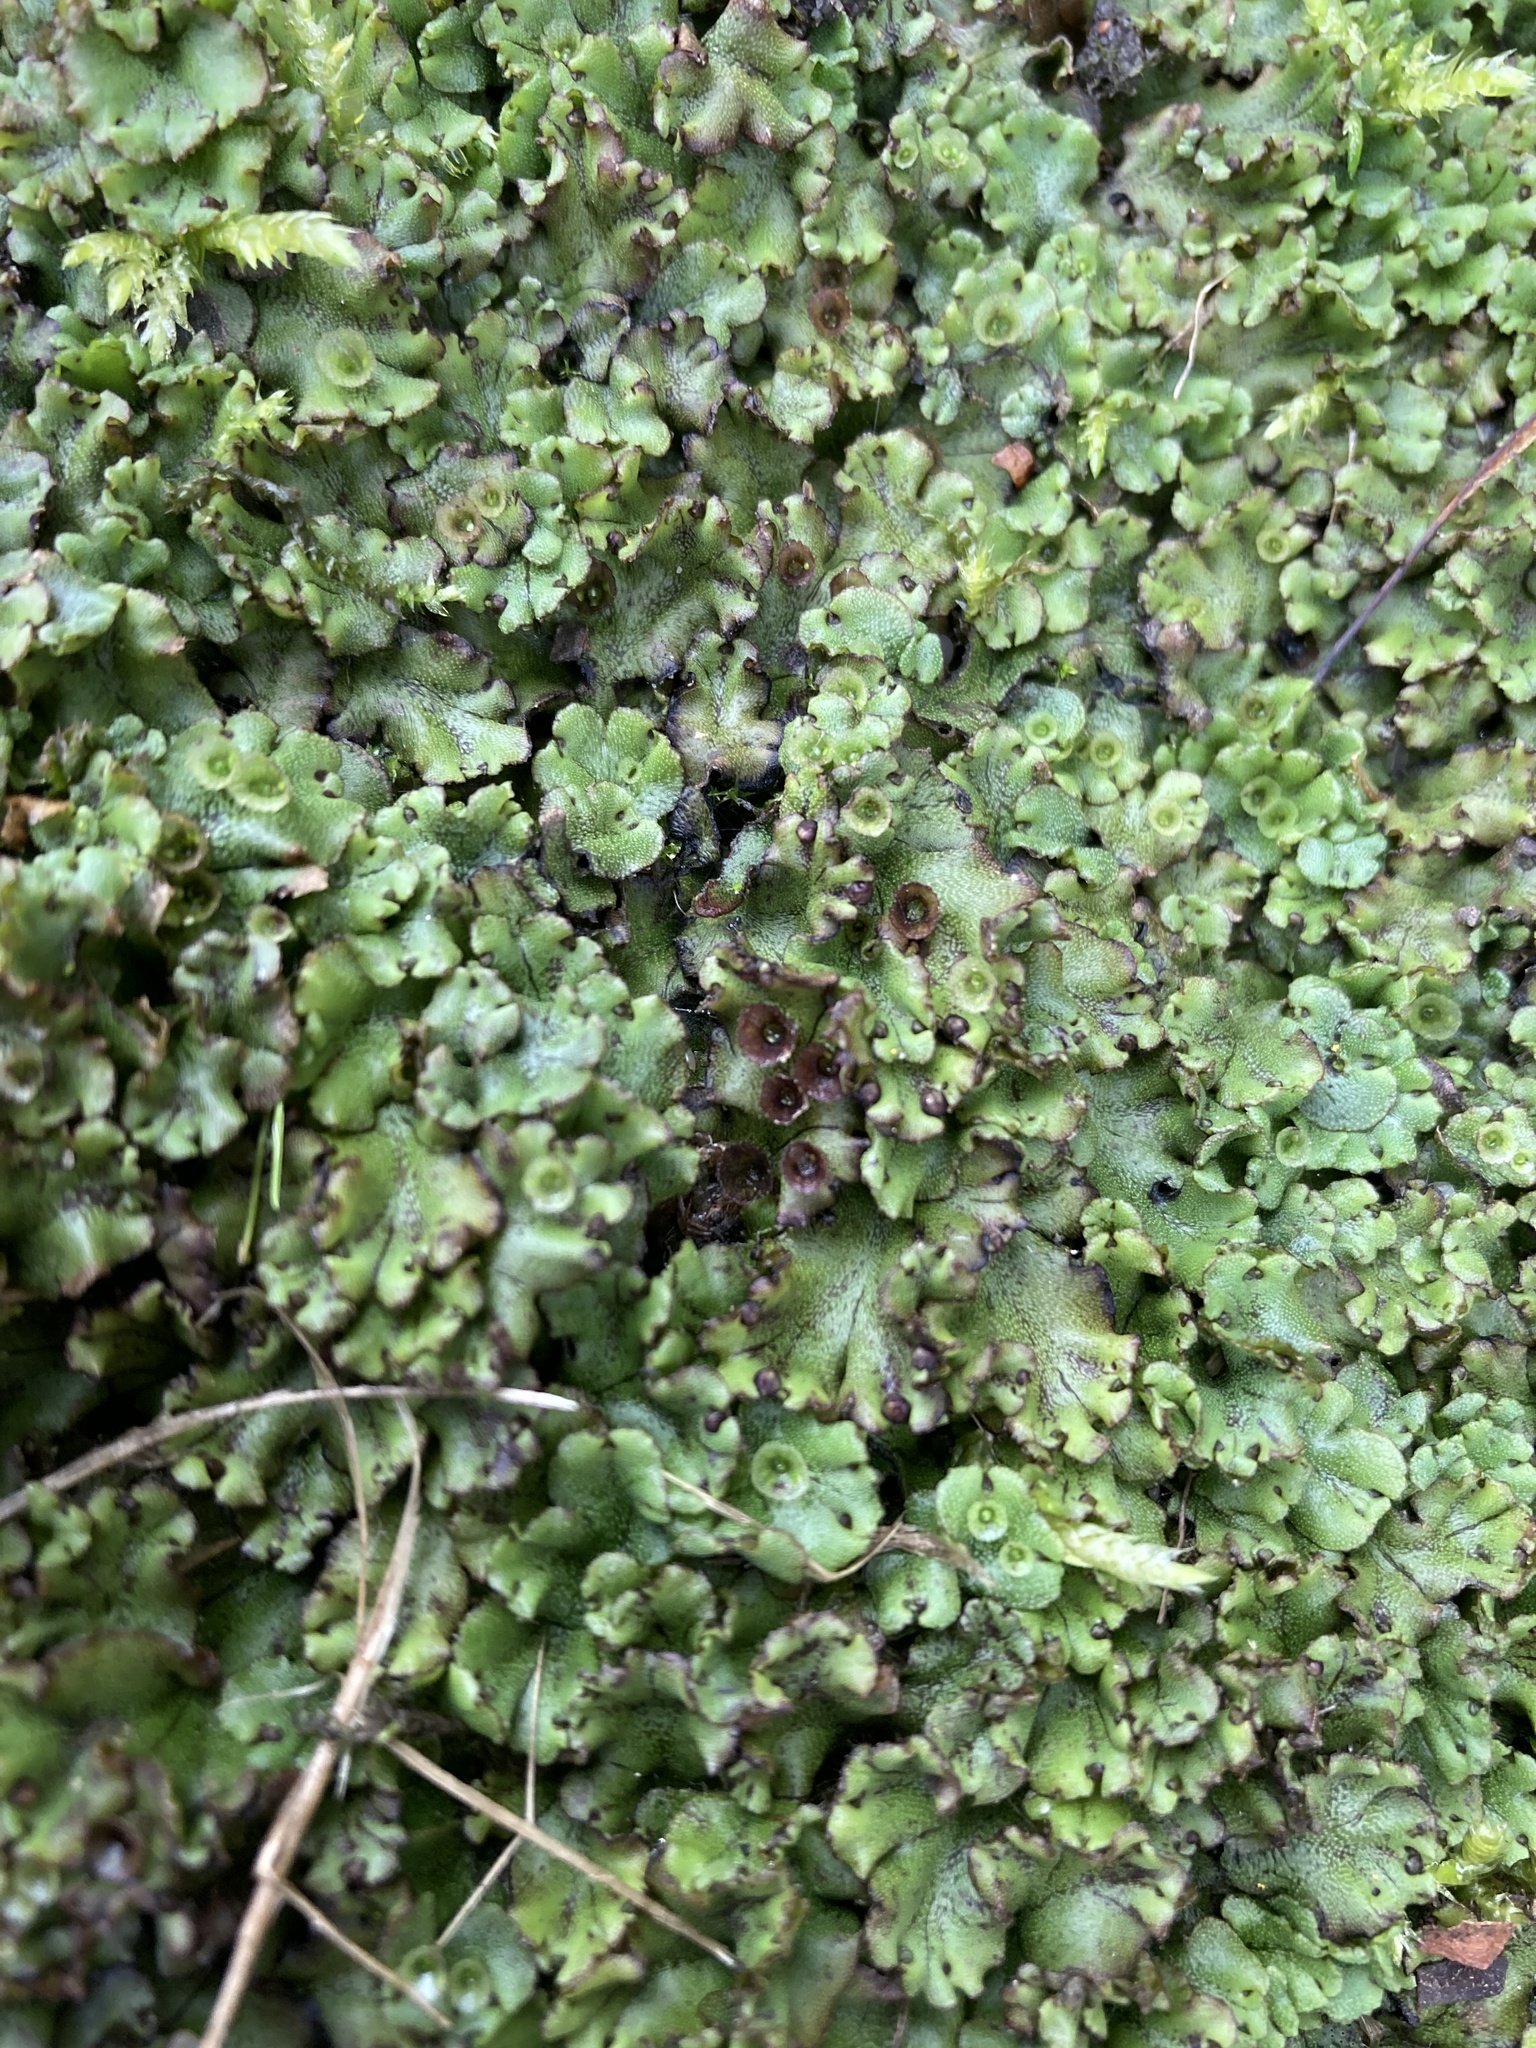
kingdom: Plantae
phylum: Marchantiophyta
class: Marchantiopsida
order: Marchantiales
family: Marchantiaceae
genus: Marchantia
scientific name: Marchantia polymorpha
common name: Common liverwort
